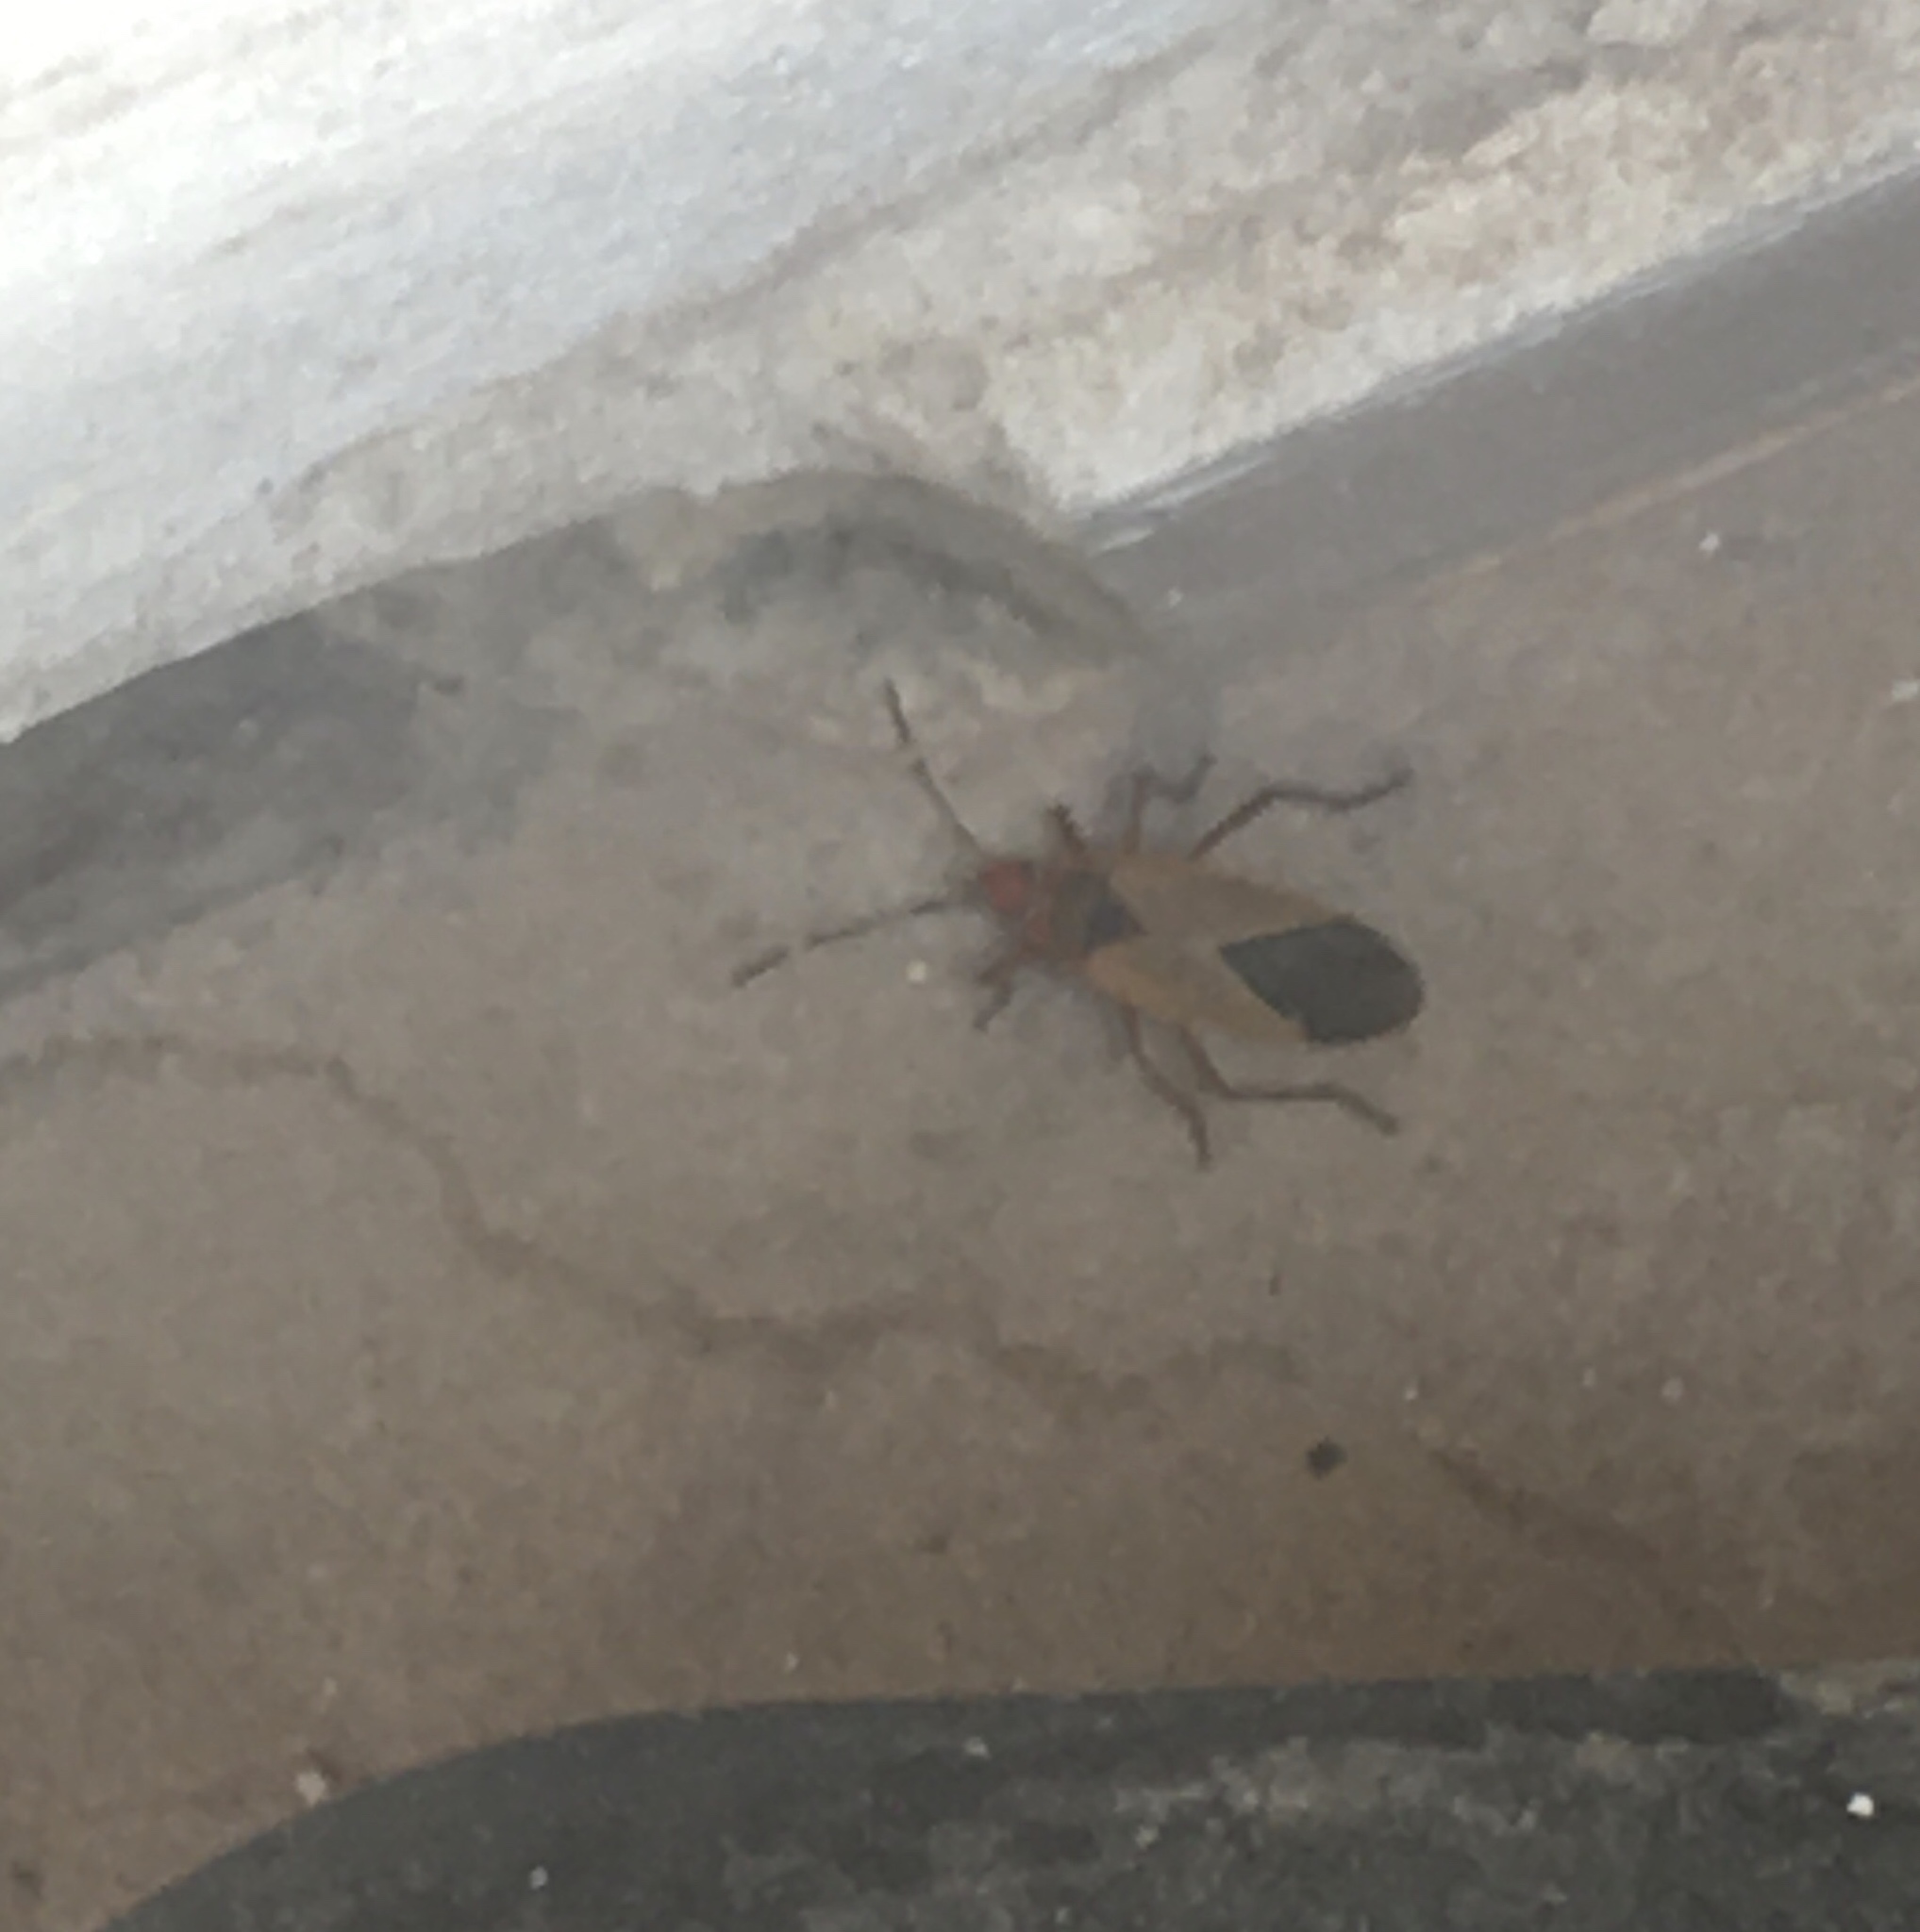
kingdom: Animalia
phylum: Arthropoda
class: Insecta
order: Hemiptera
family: Pyrrhocoridae
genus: Dysdercus
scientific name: Dysdercus
